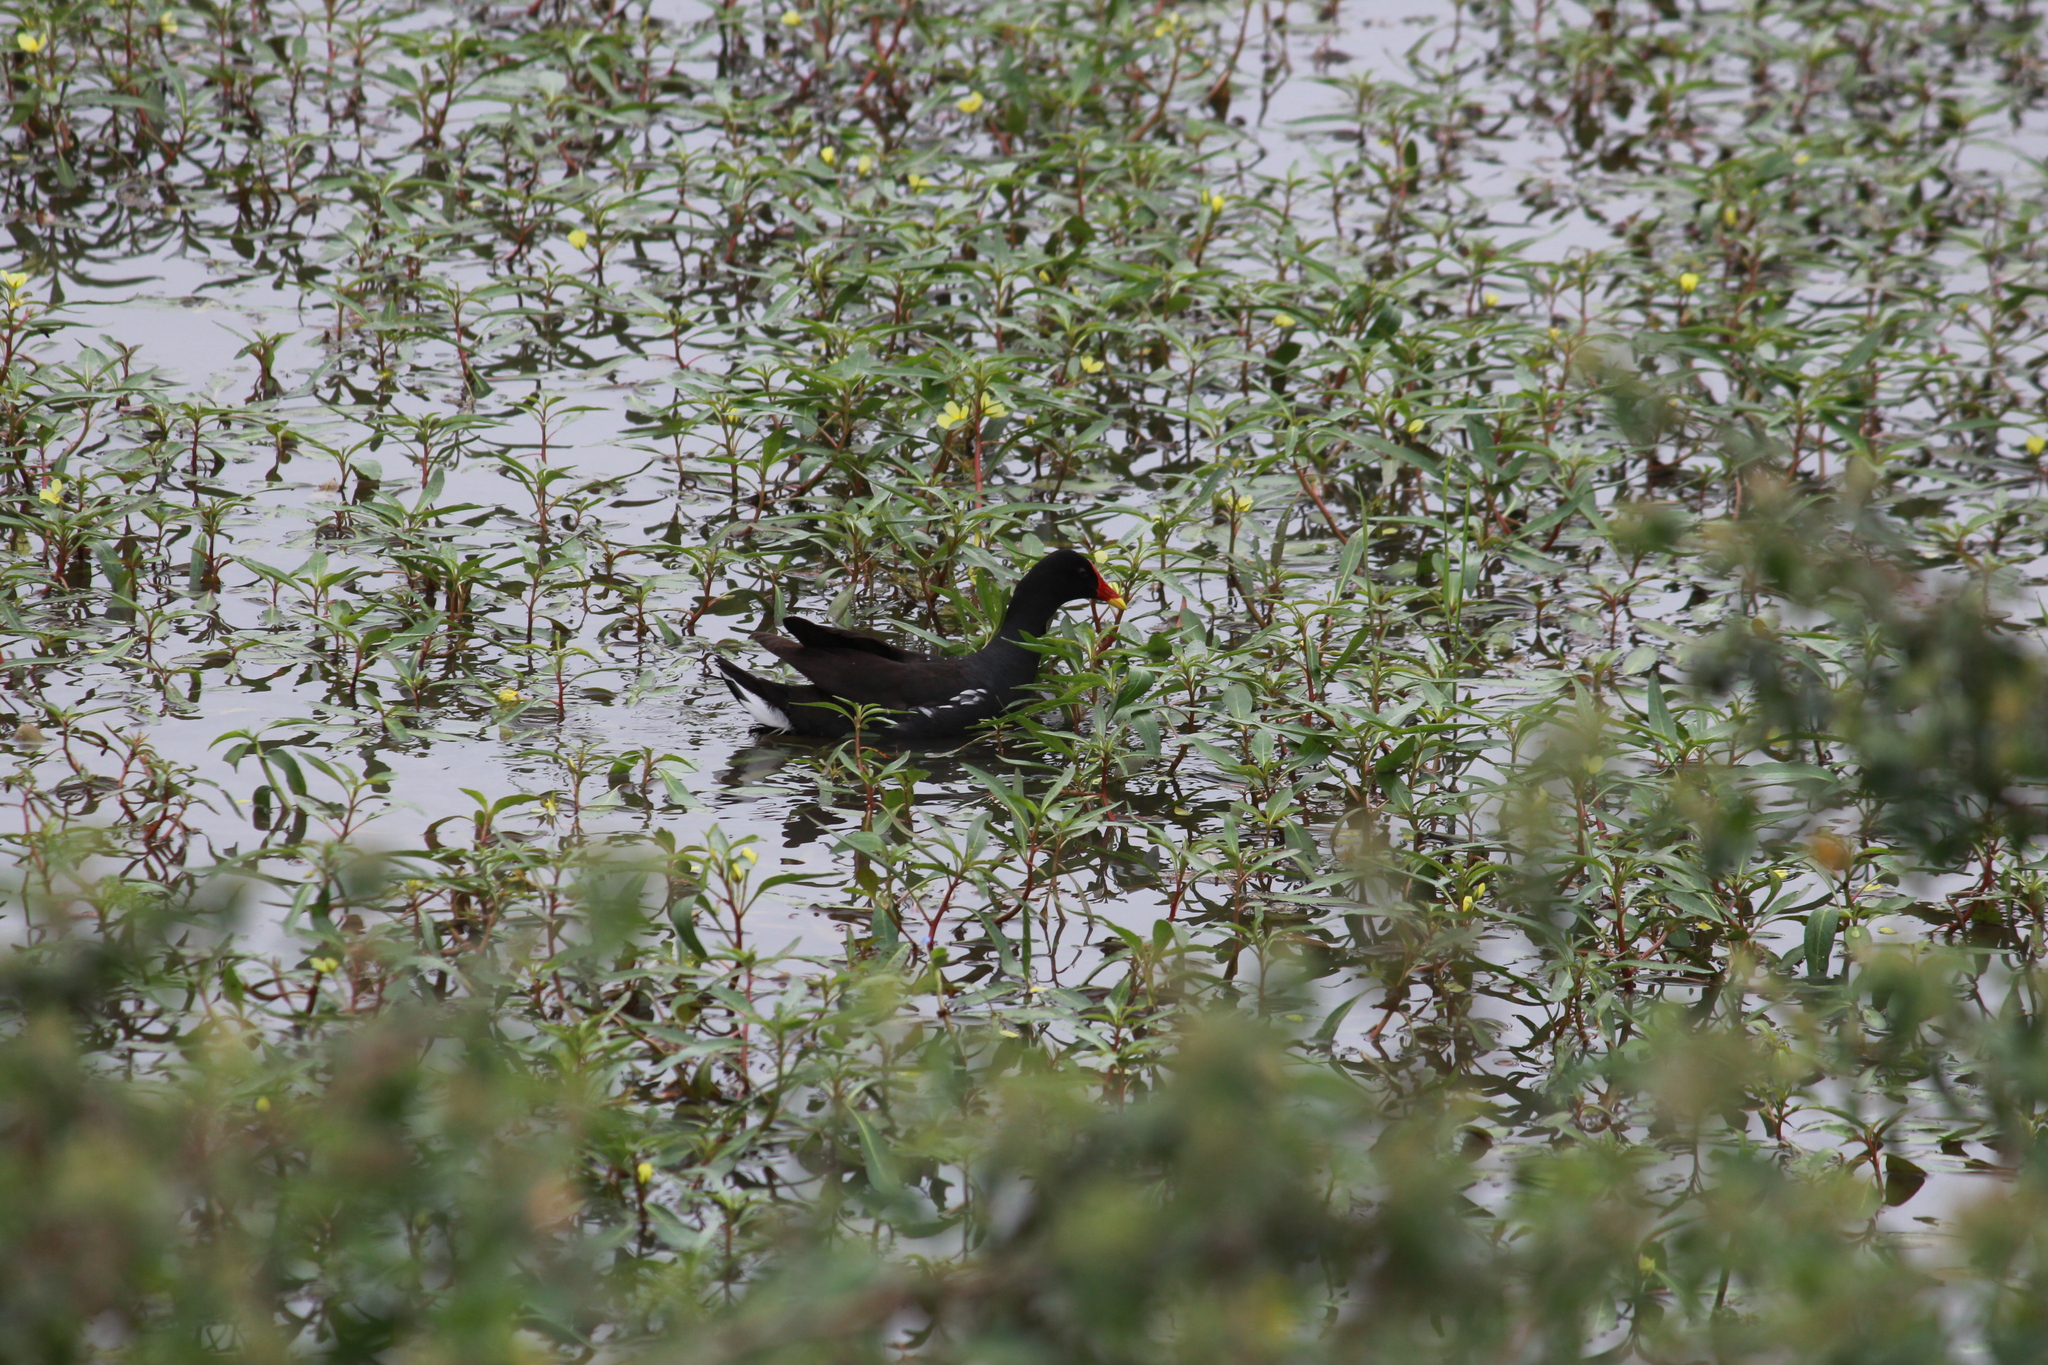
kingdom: Animalia
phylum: Chordata
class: Aves
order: Gruiformes
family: Rallidae
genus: Gallinula
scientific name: Gallinula chloropus
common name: Common moorhen
